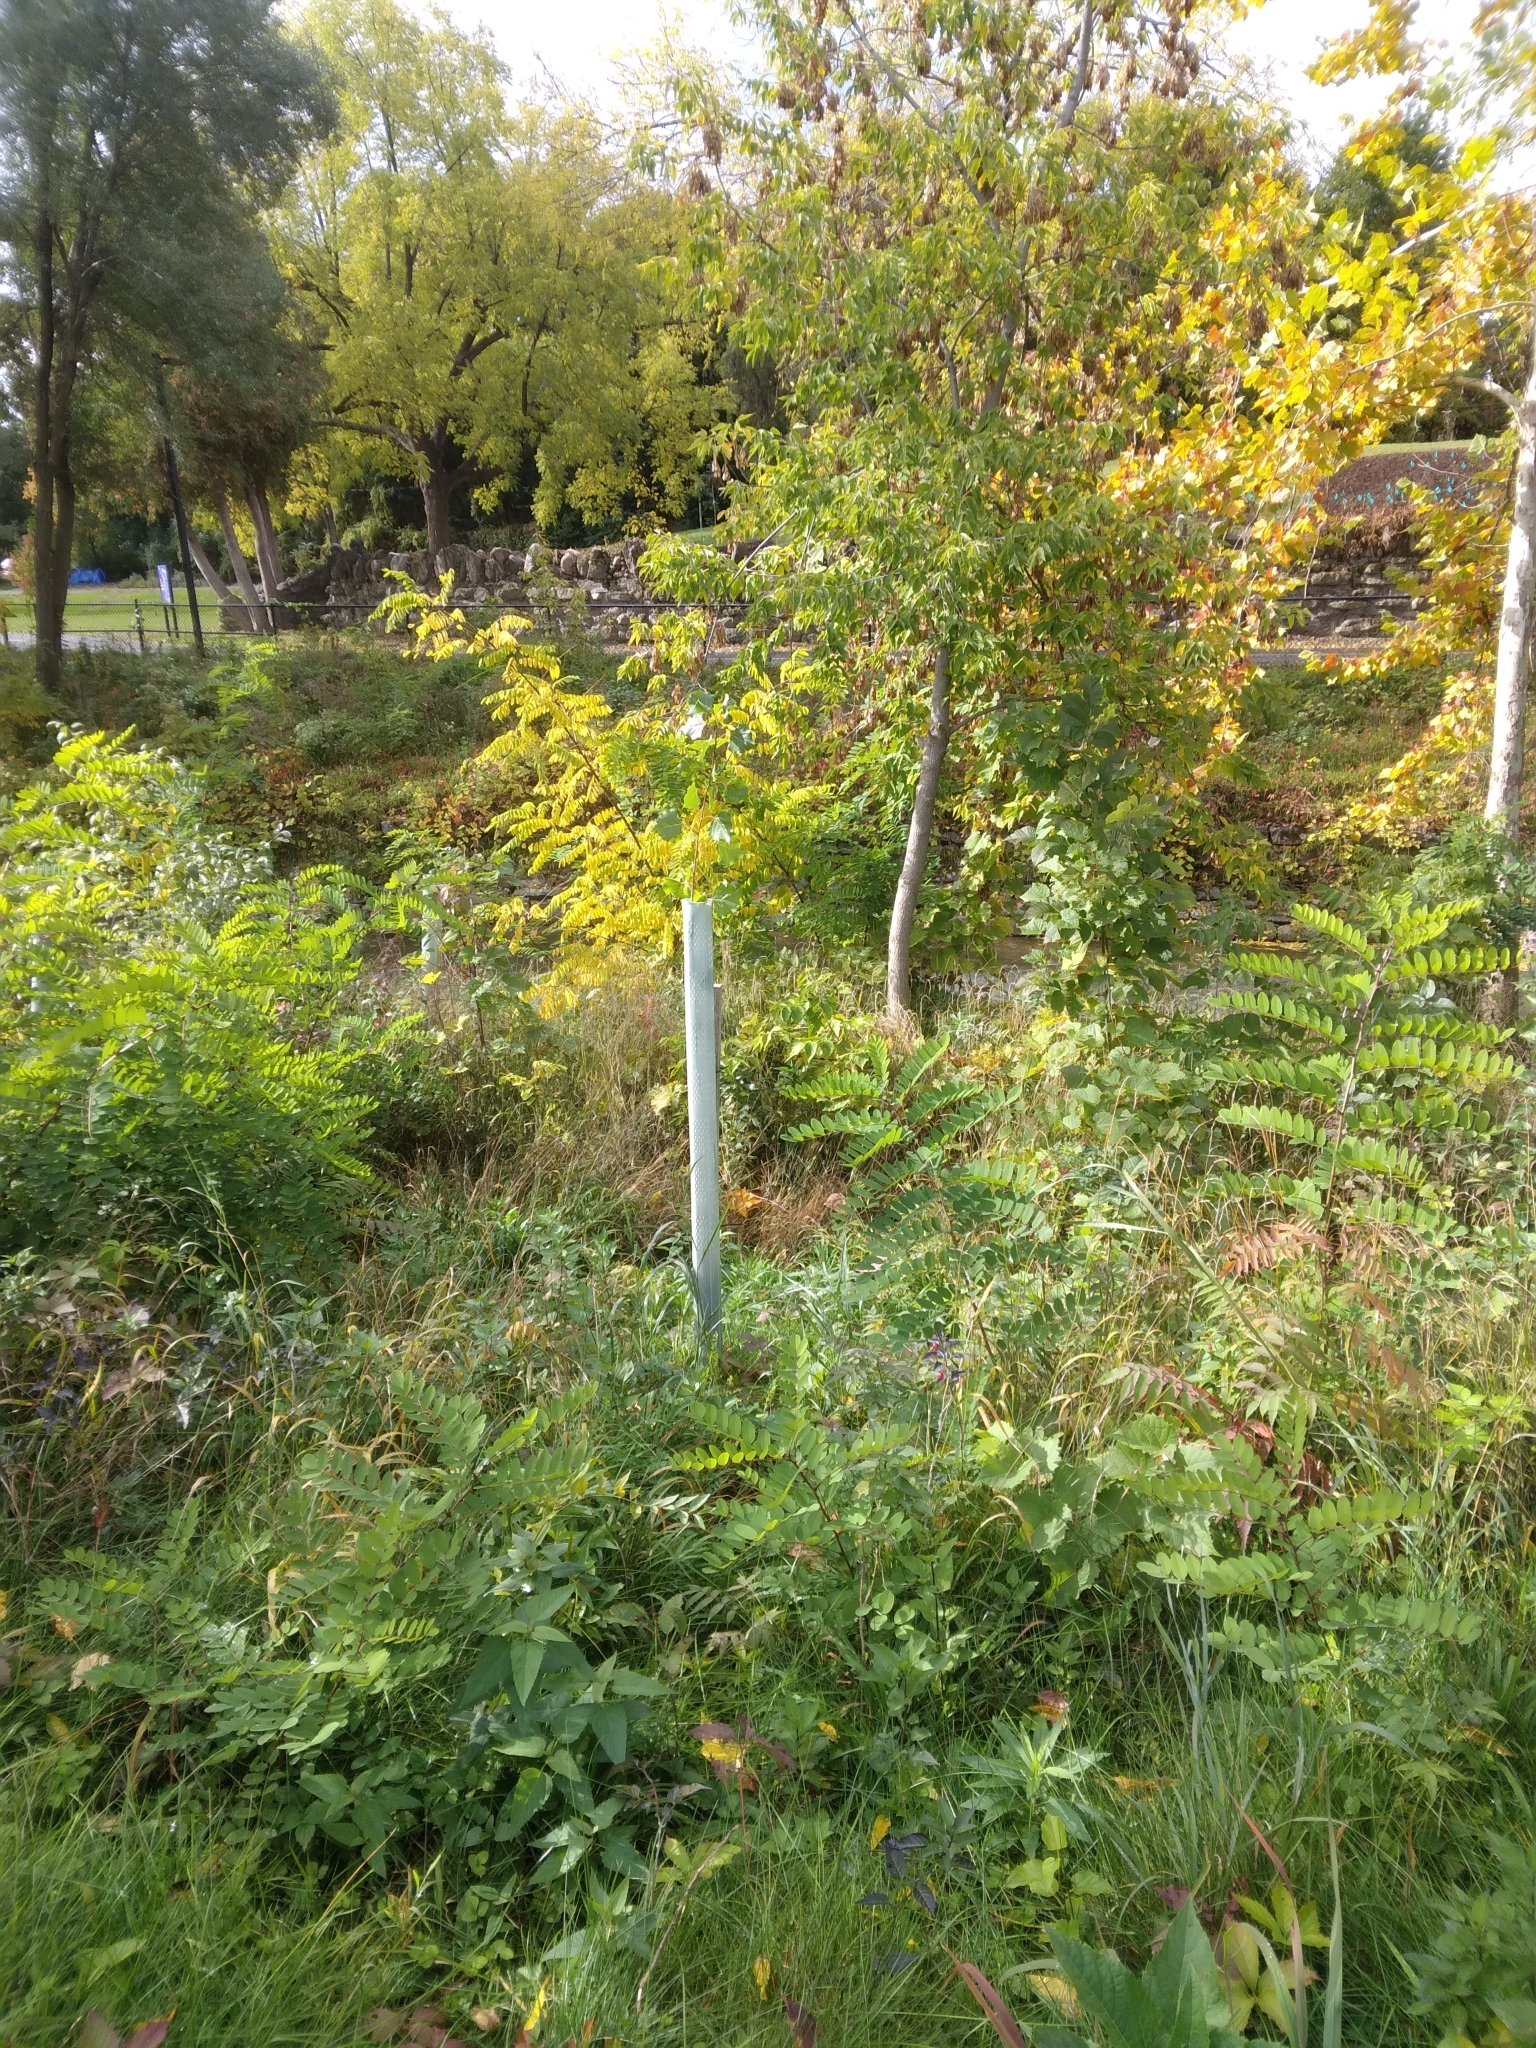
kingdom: Plantae
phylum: Tracheophyta
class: Magnoliopsida
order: Malpighiales
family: Salicaceae
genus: Populus
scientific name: Populus deltoides
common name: Eastern cottonwood
